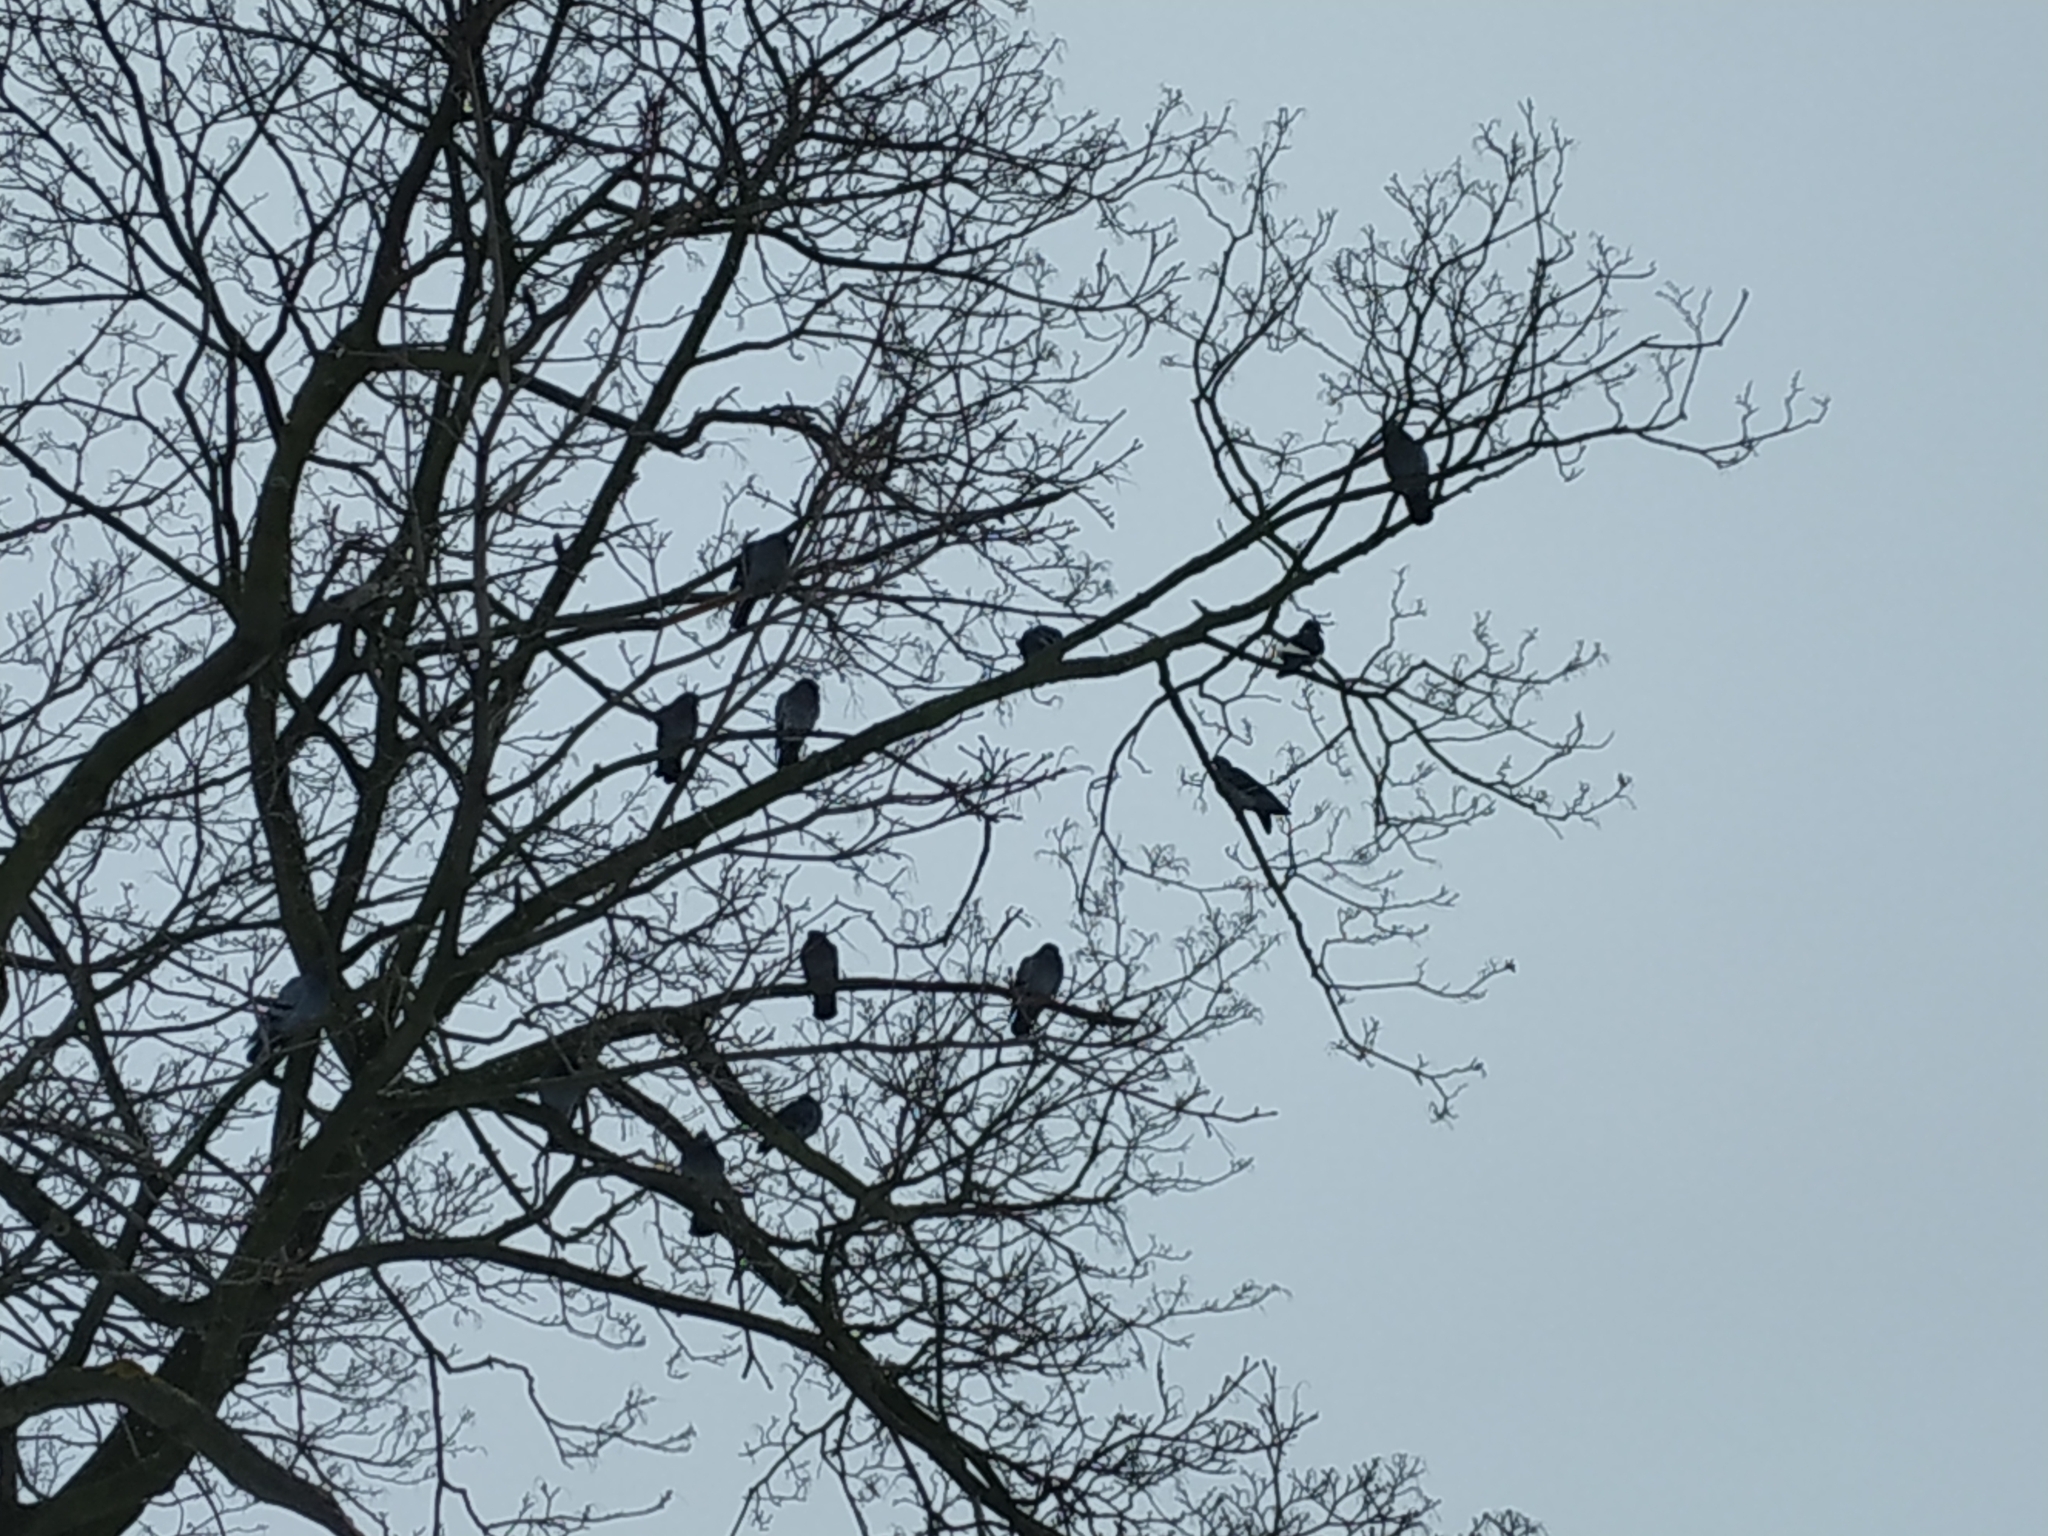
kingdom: Animalia
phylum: Chordata
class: Aves
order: Columbiformes
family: Columbidae
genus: Columba
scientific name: Columba livia
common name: Rock pigeon
